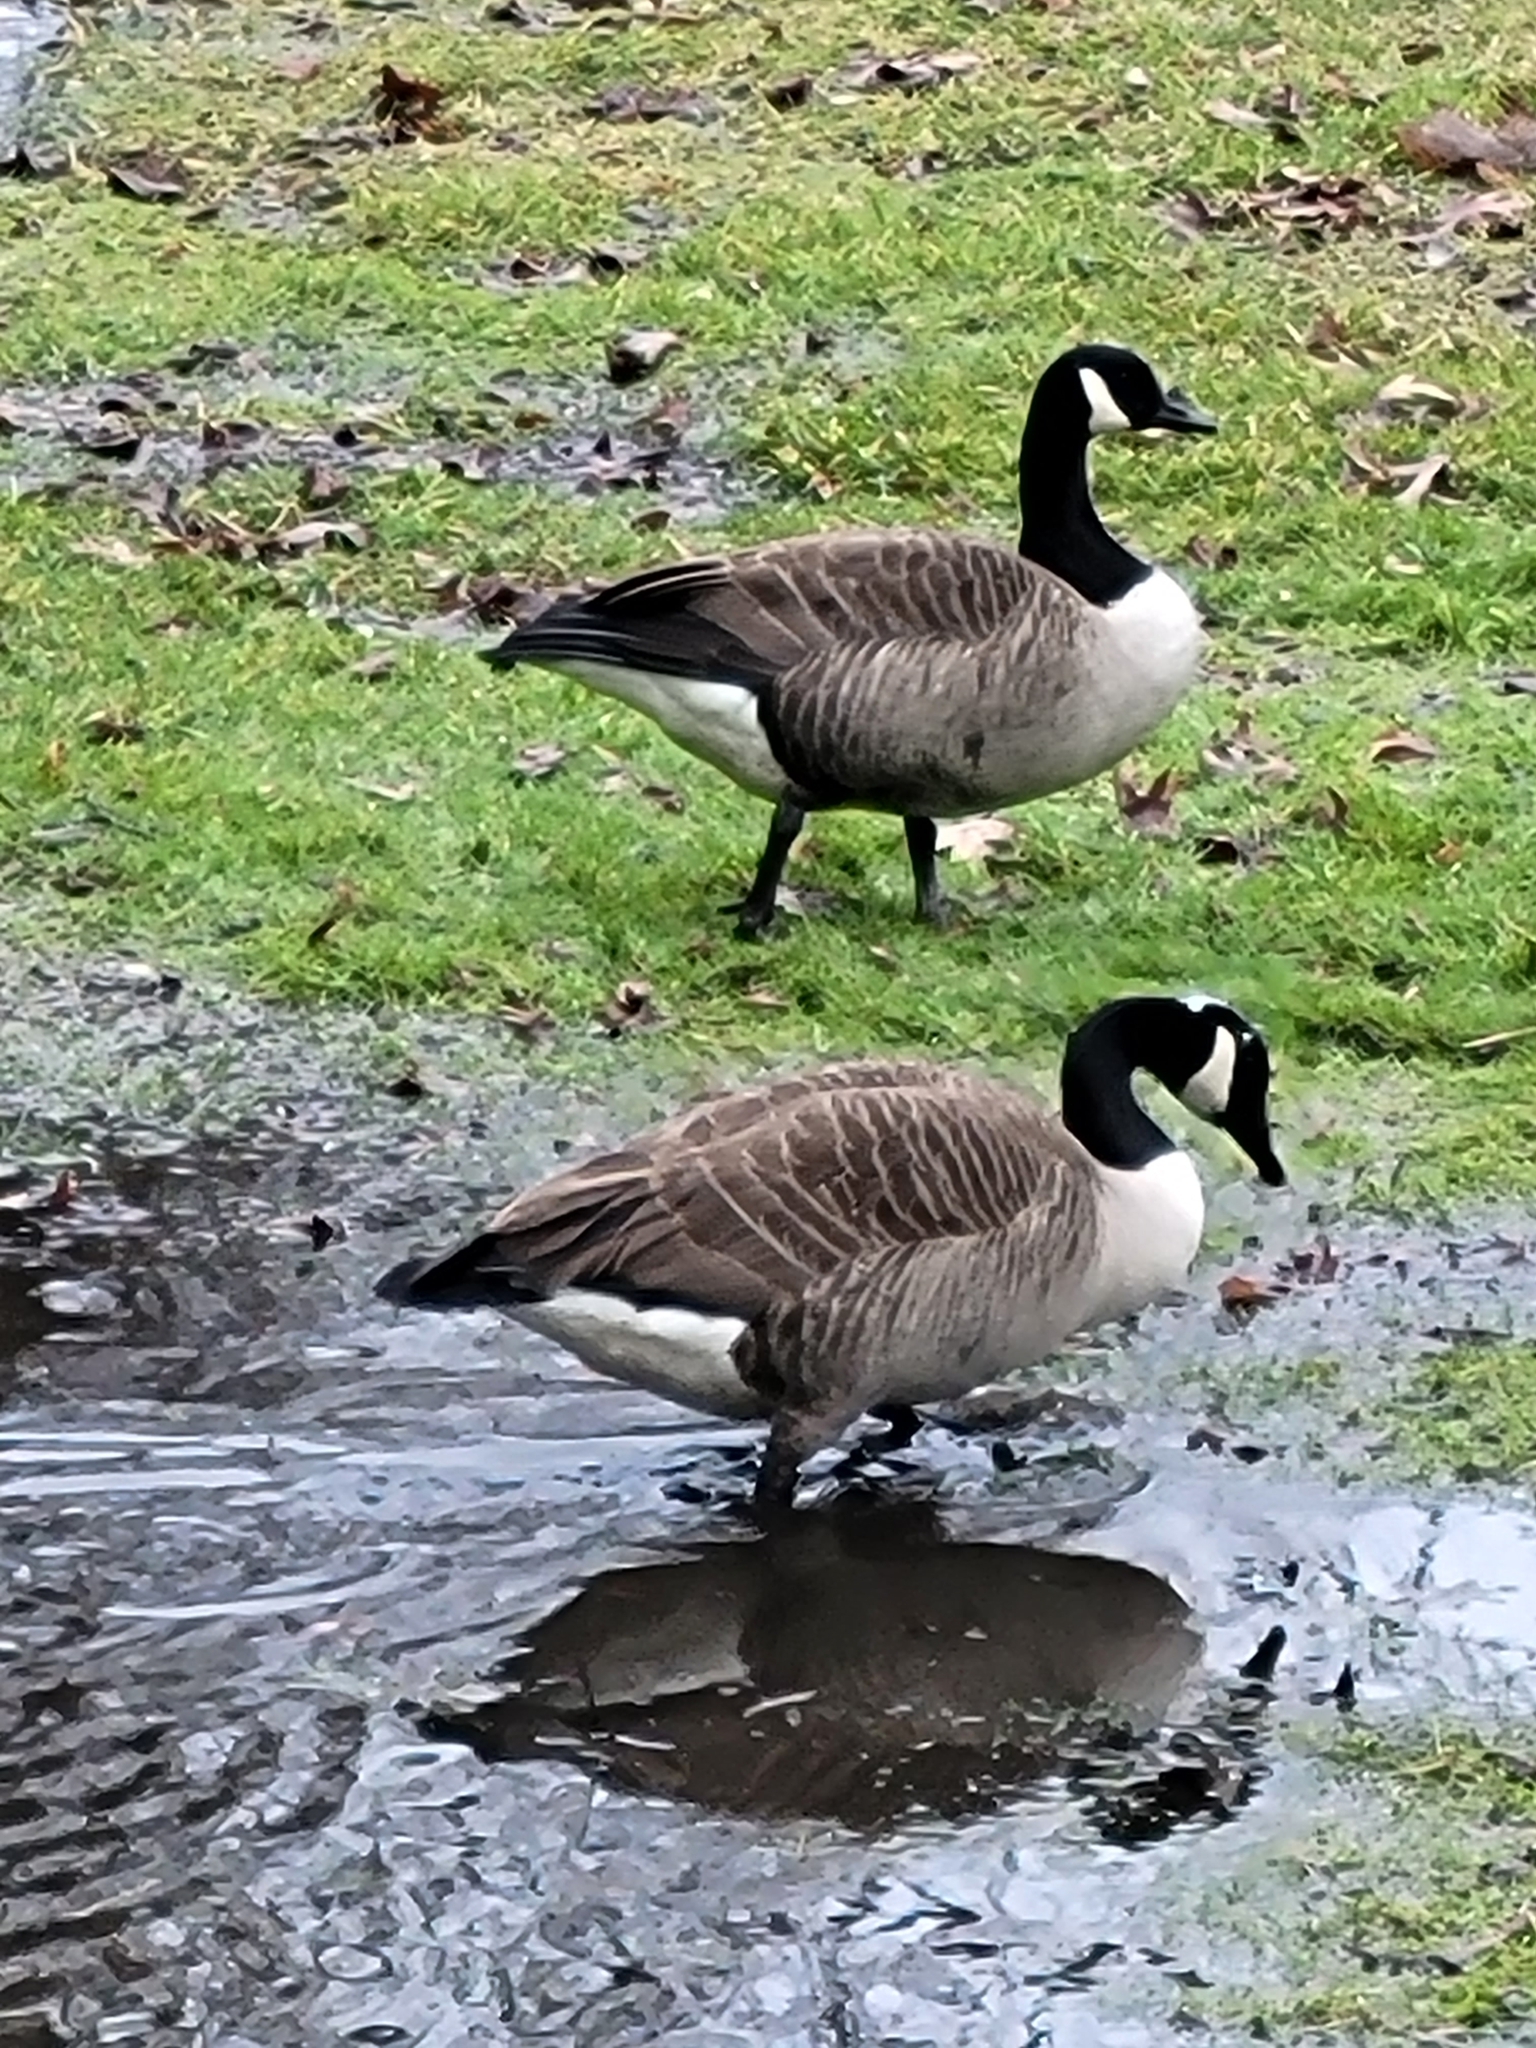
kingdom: Animalia
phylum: Chordata
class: Aves
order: Anseriformes
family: Anatidae
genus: Branta
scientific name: Branta canadensis
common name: Canada goose
